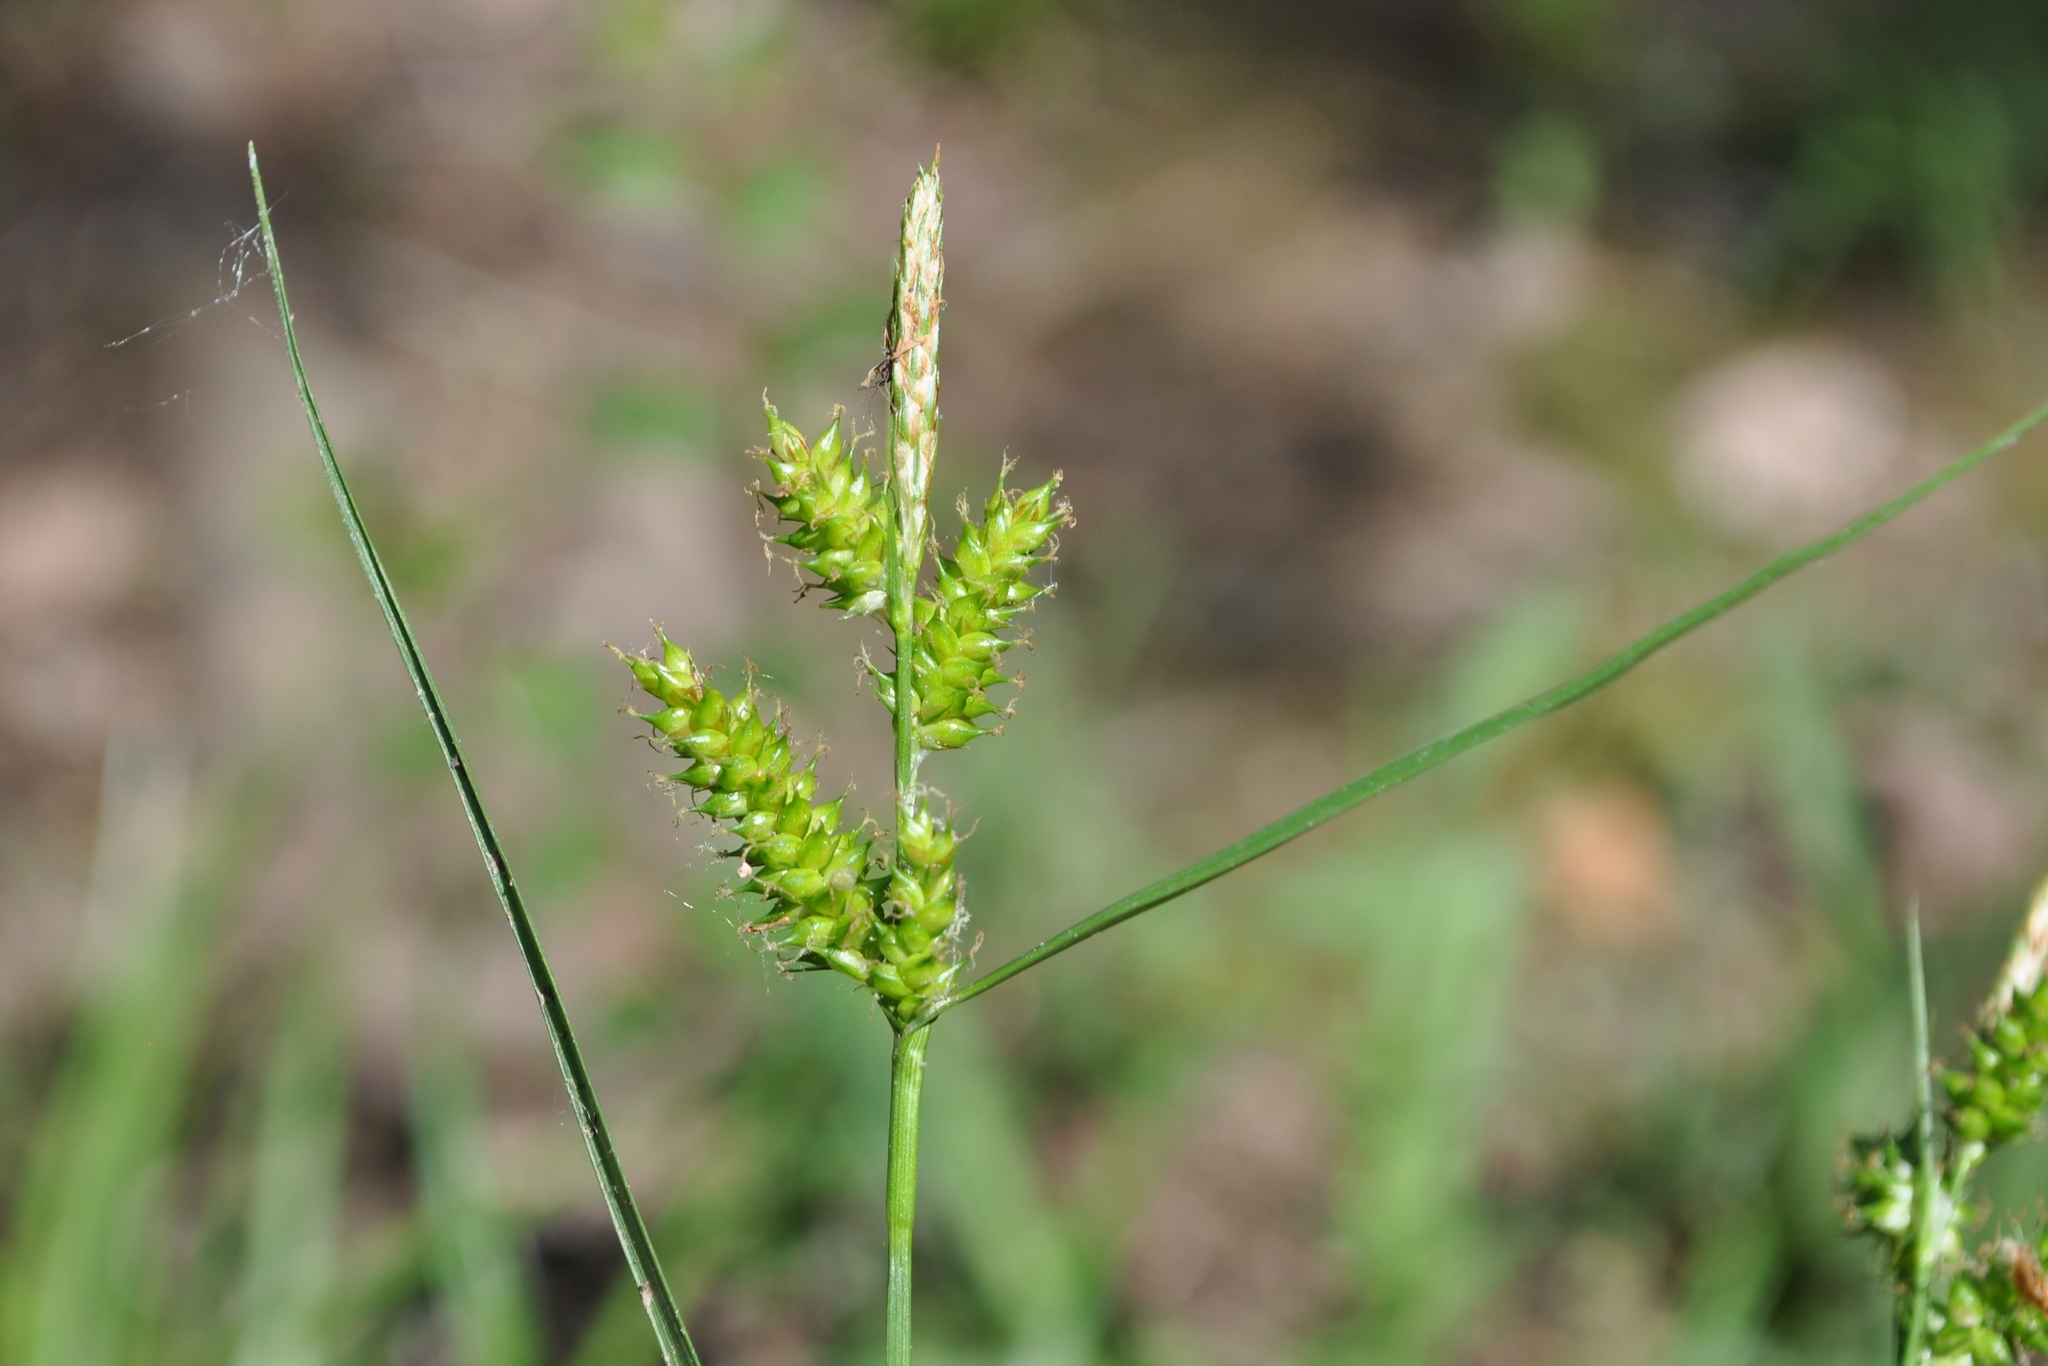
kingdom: Plantae
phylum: Tracheophyta
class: Liliopsida
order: Poales
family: Cyperaceae
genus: Carex
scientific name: Carex punctata
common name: Dotted sedge
